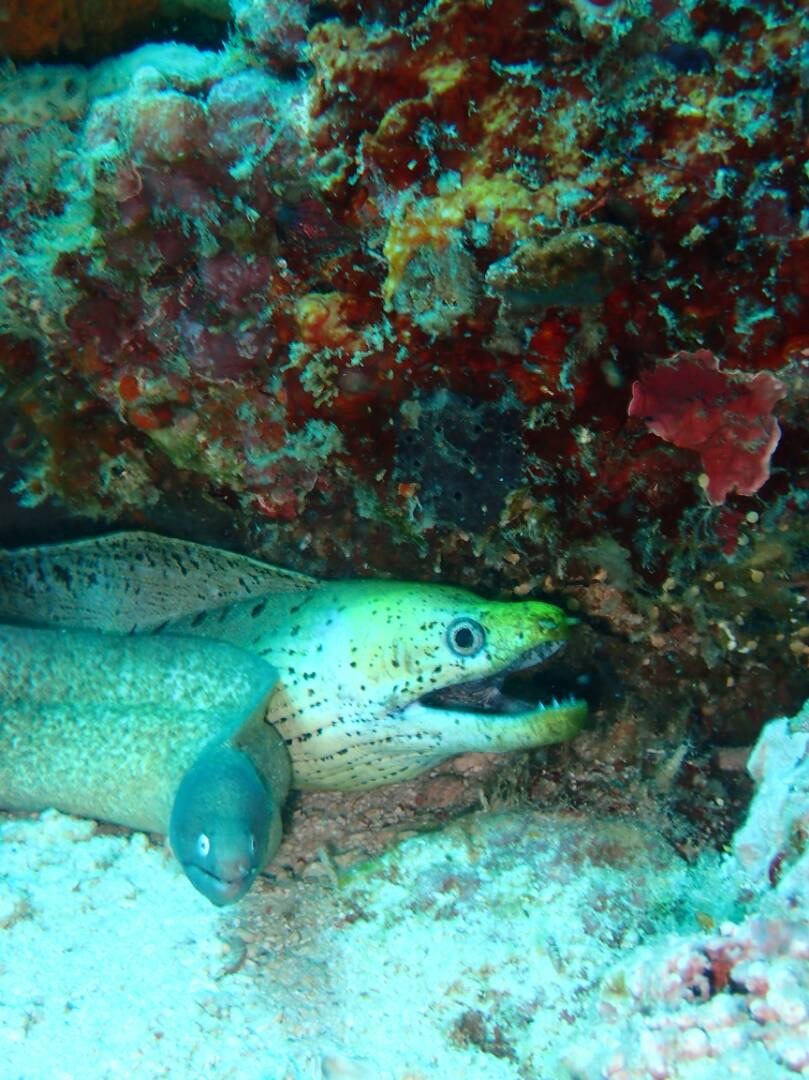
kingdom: Animalia
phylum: Chordata
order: Anguilliformes
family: Muraenidae
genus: Gymnothorax
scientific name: Gymnothorax fimbriatus
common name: Darkspotted moray
